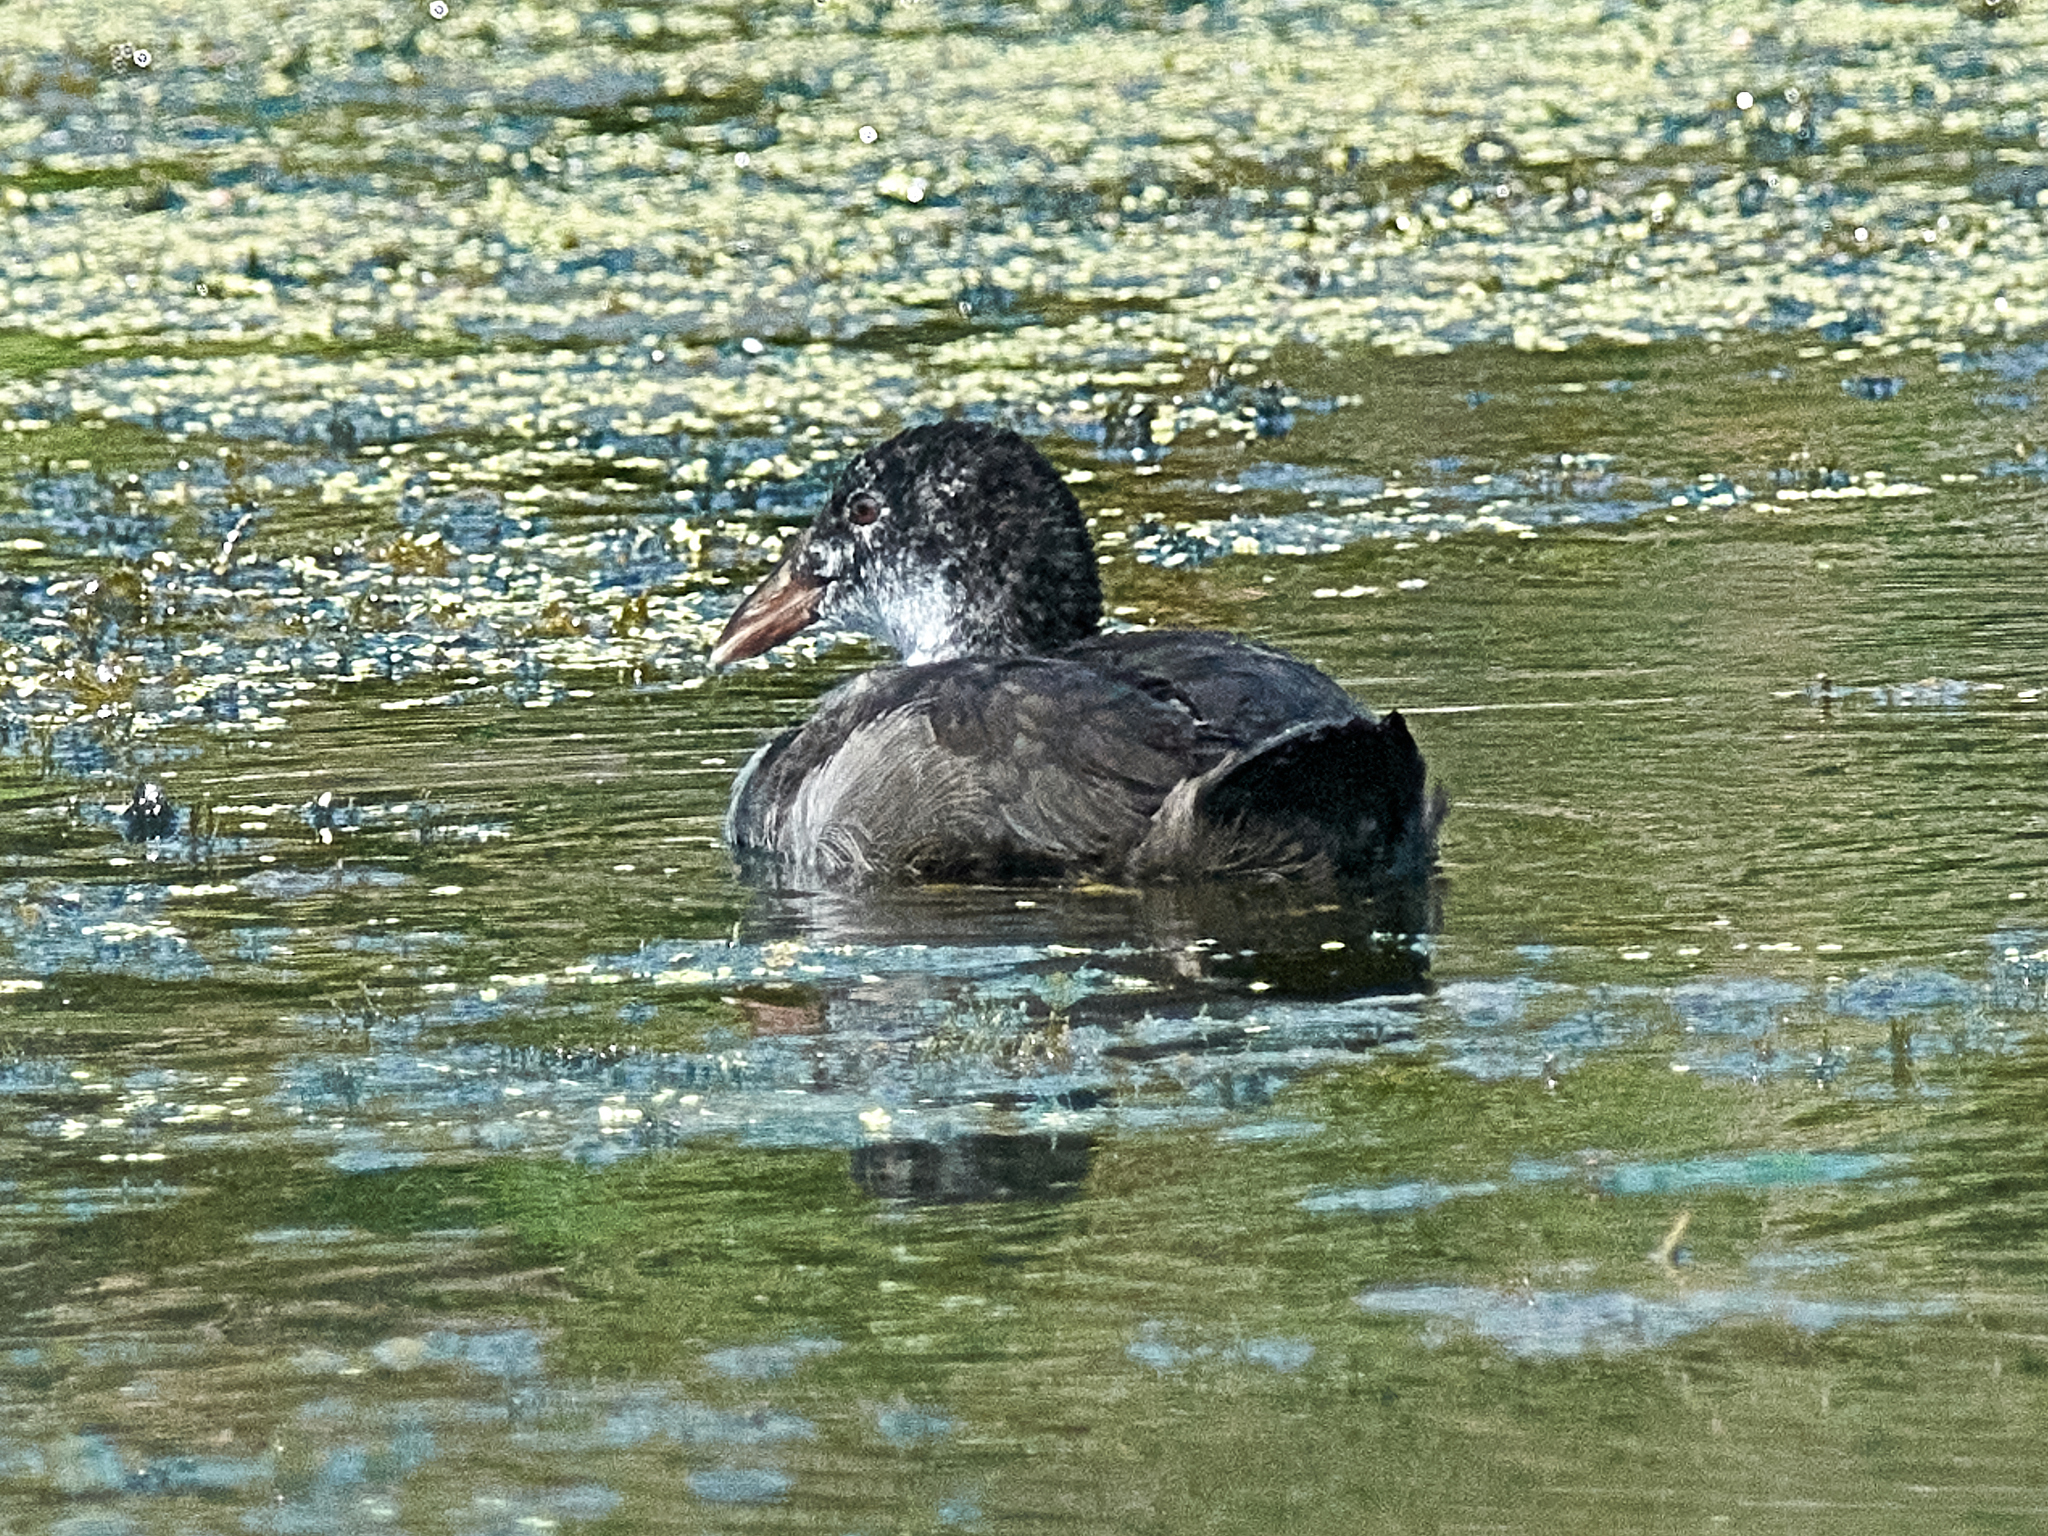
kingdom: Animalia
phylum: Chordata
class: Aves
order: Gruiformes
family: Rallidae
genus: Fulica
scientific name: Fulica atra
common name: Eurasian coot
